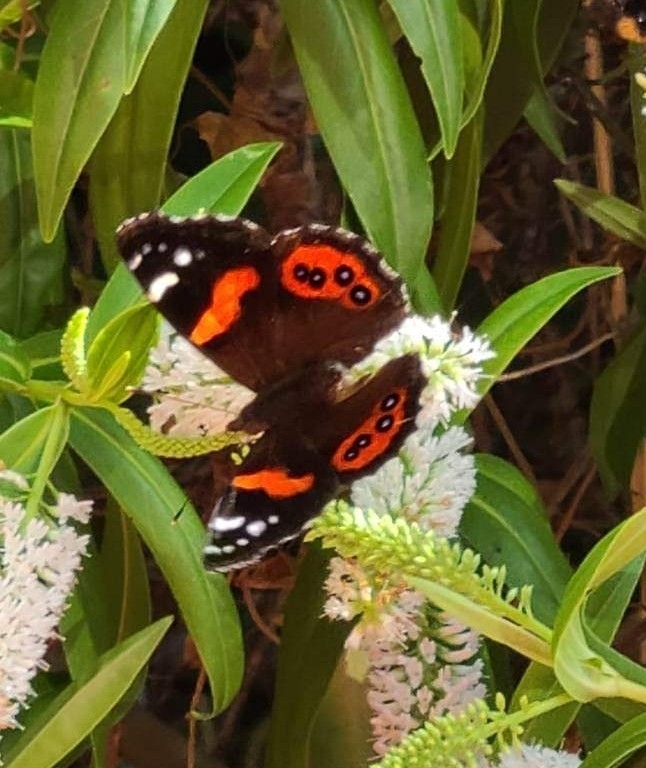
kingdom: Animalia
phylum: Arthropoda
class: Insecta
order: Lepidoptera
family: Nymphalidae
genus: Vanessa
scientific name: Vanessa gonerilla
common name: New zealand red admiral
